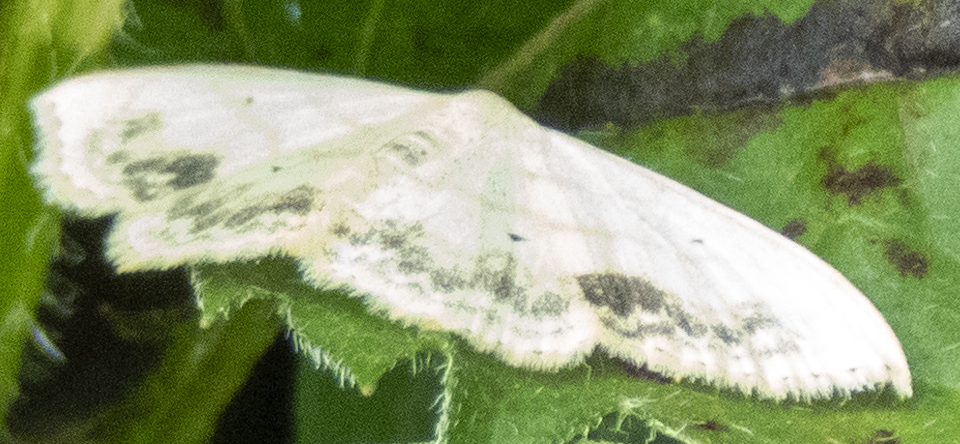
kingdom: Animalia
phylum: Arthropoda
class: Insecta
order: Lepidoptera
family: Geometridae
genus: Scopula
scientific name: Scopula limboundata
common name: Large lace border
